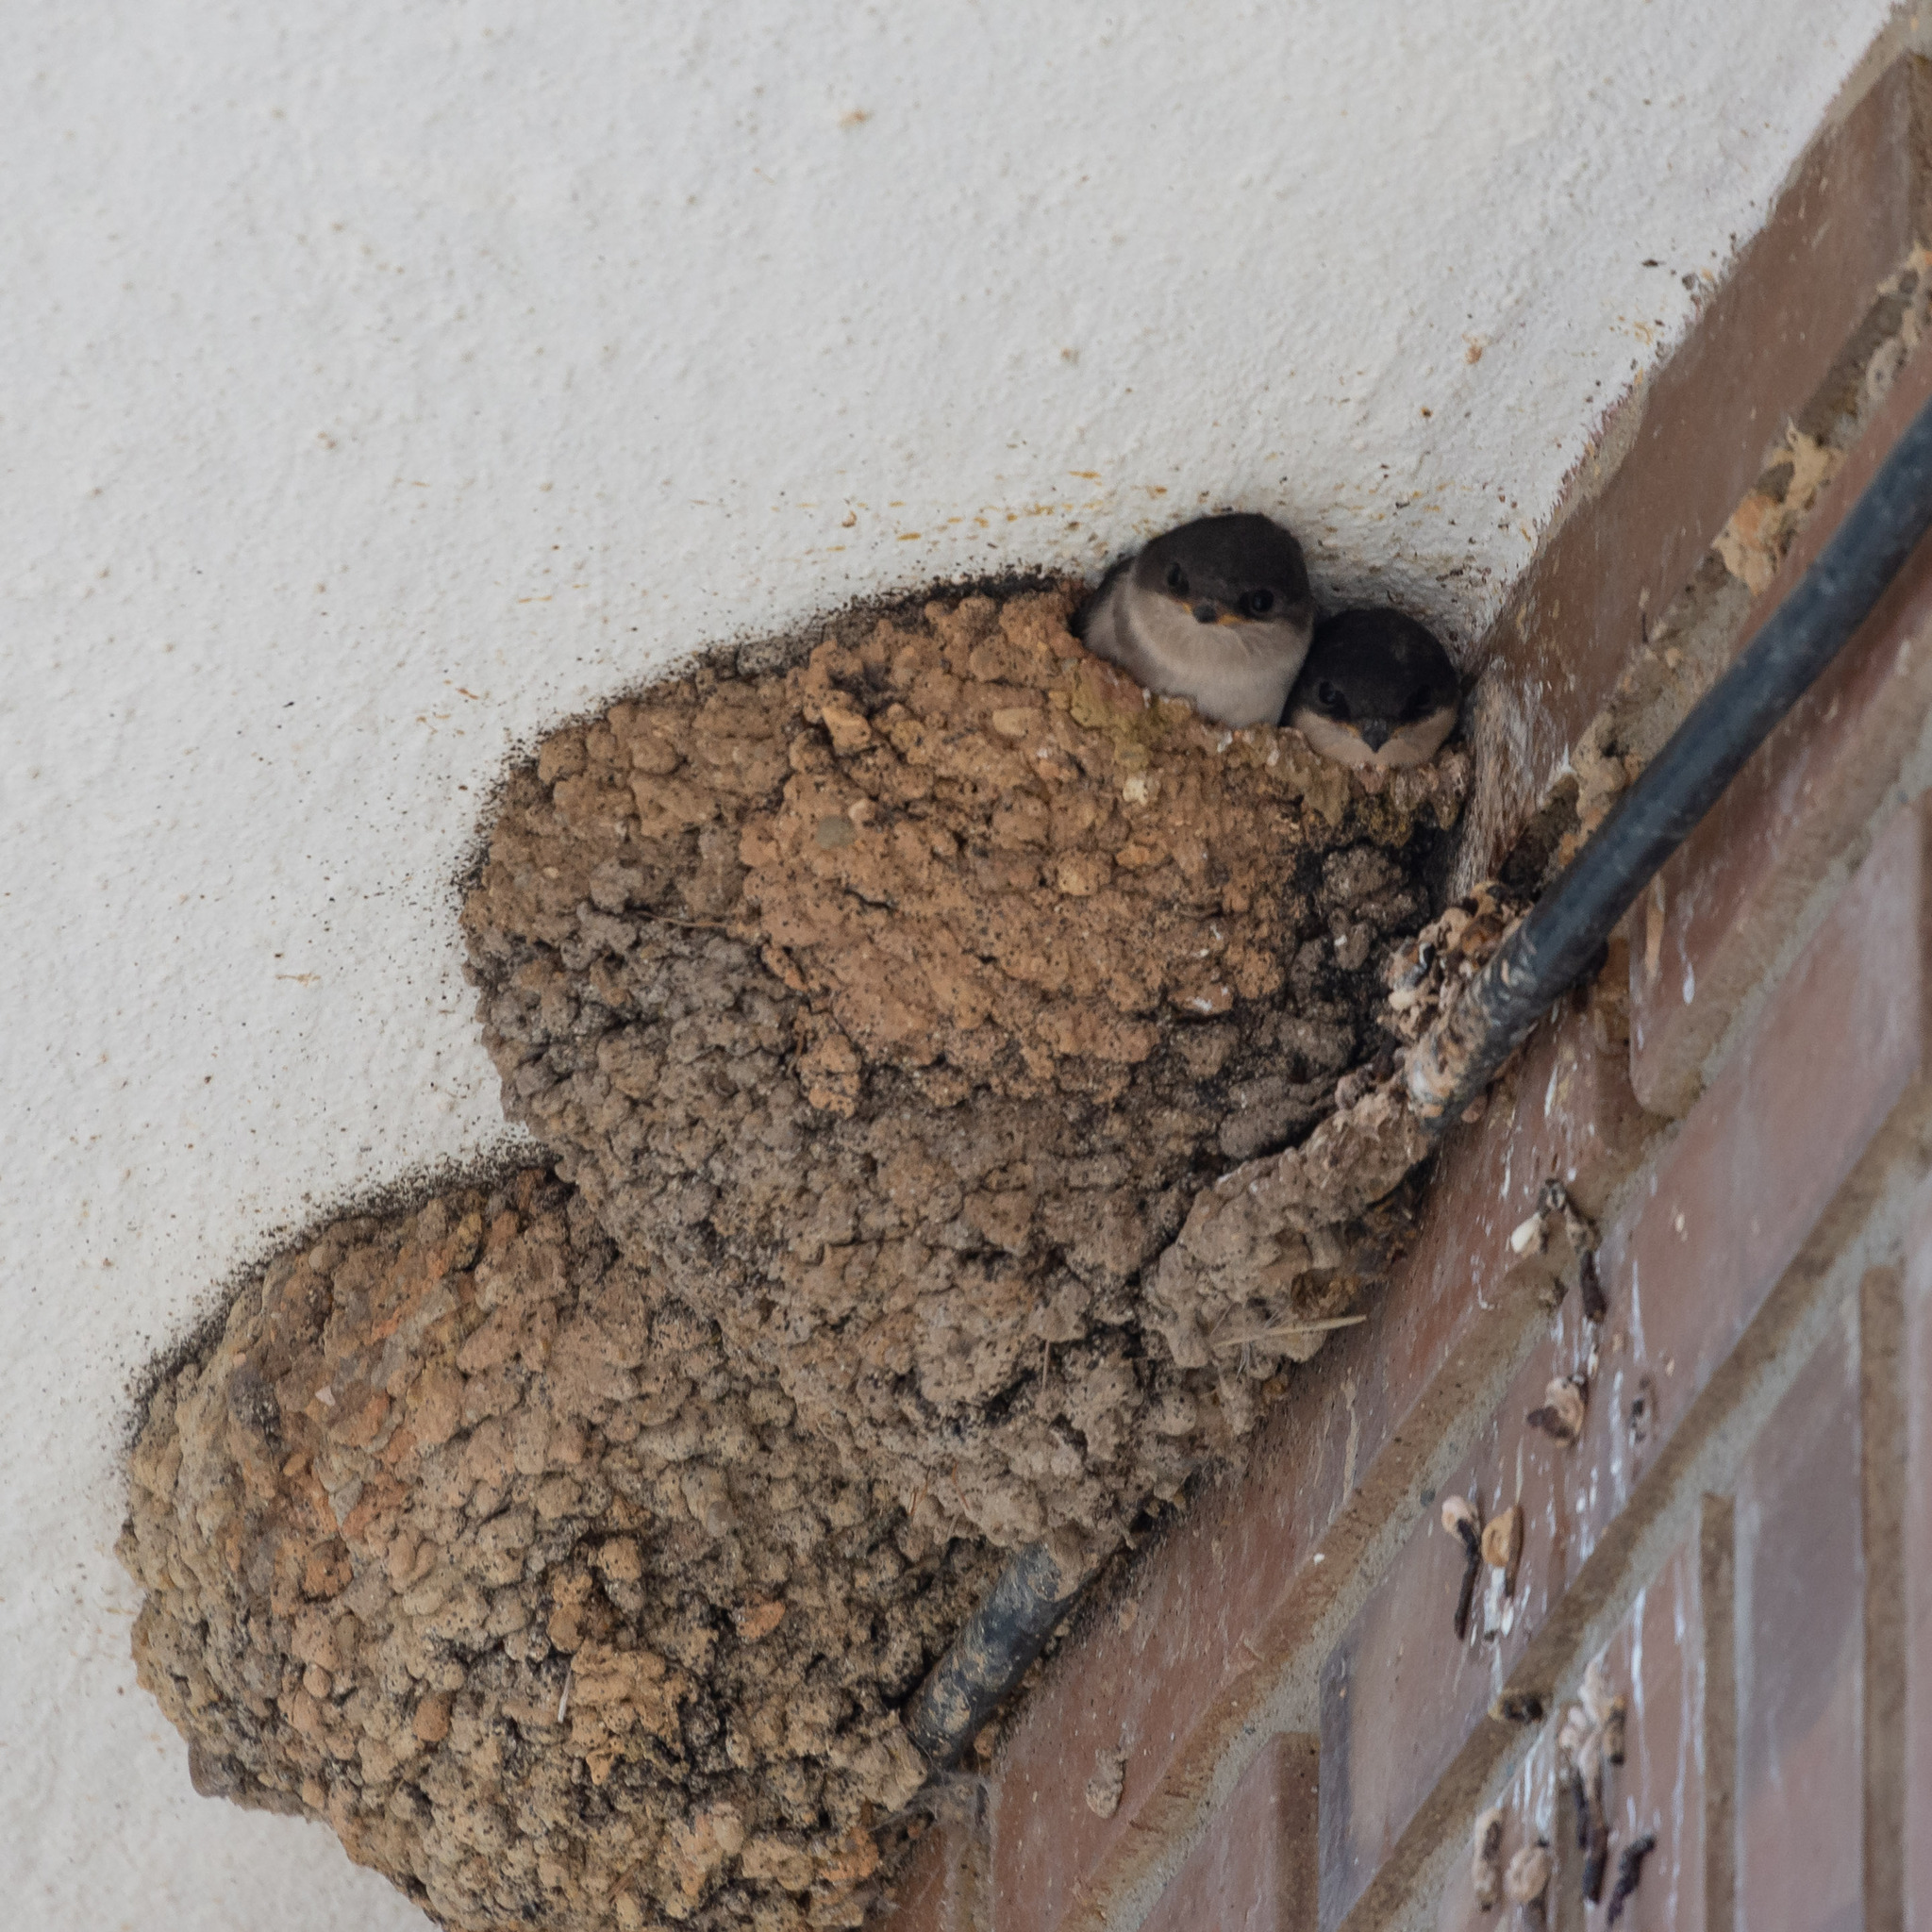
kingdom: Animalia
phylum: Chordata
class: Aves
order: Passeriformes
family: Hirundinidae
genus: Delichon
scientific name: Delichon urbicum
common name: Common house martin
